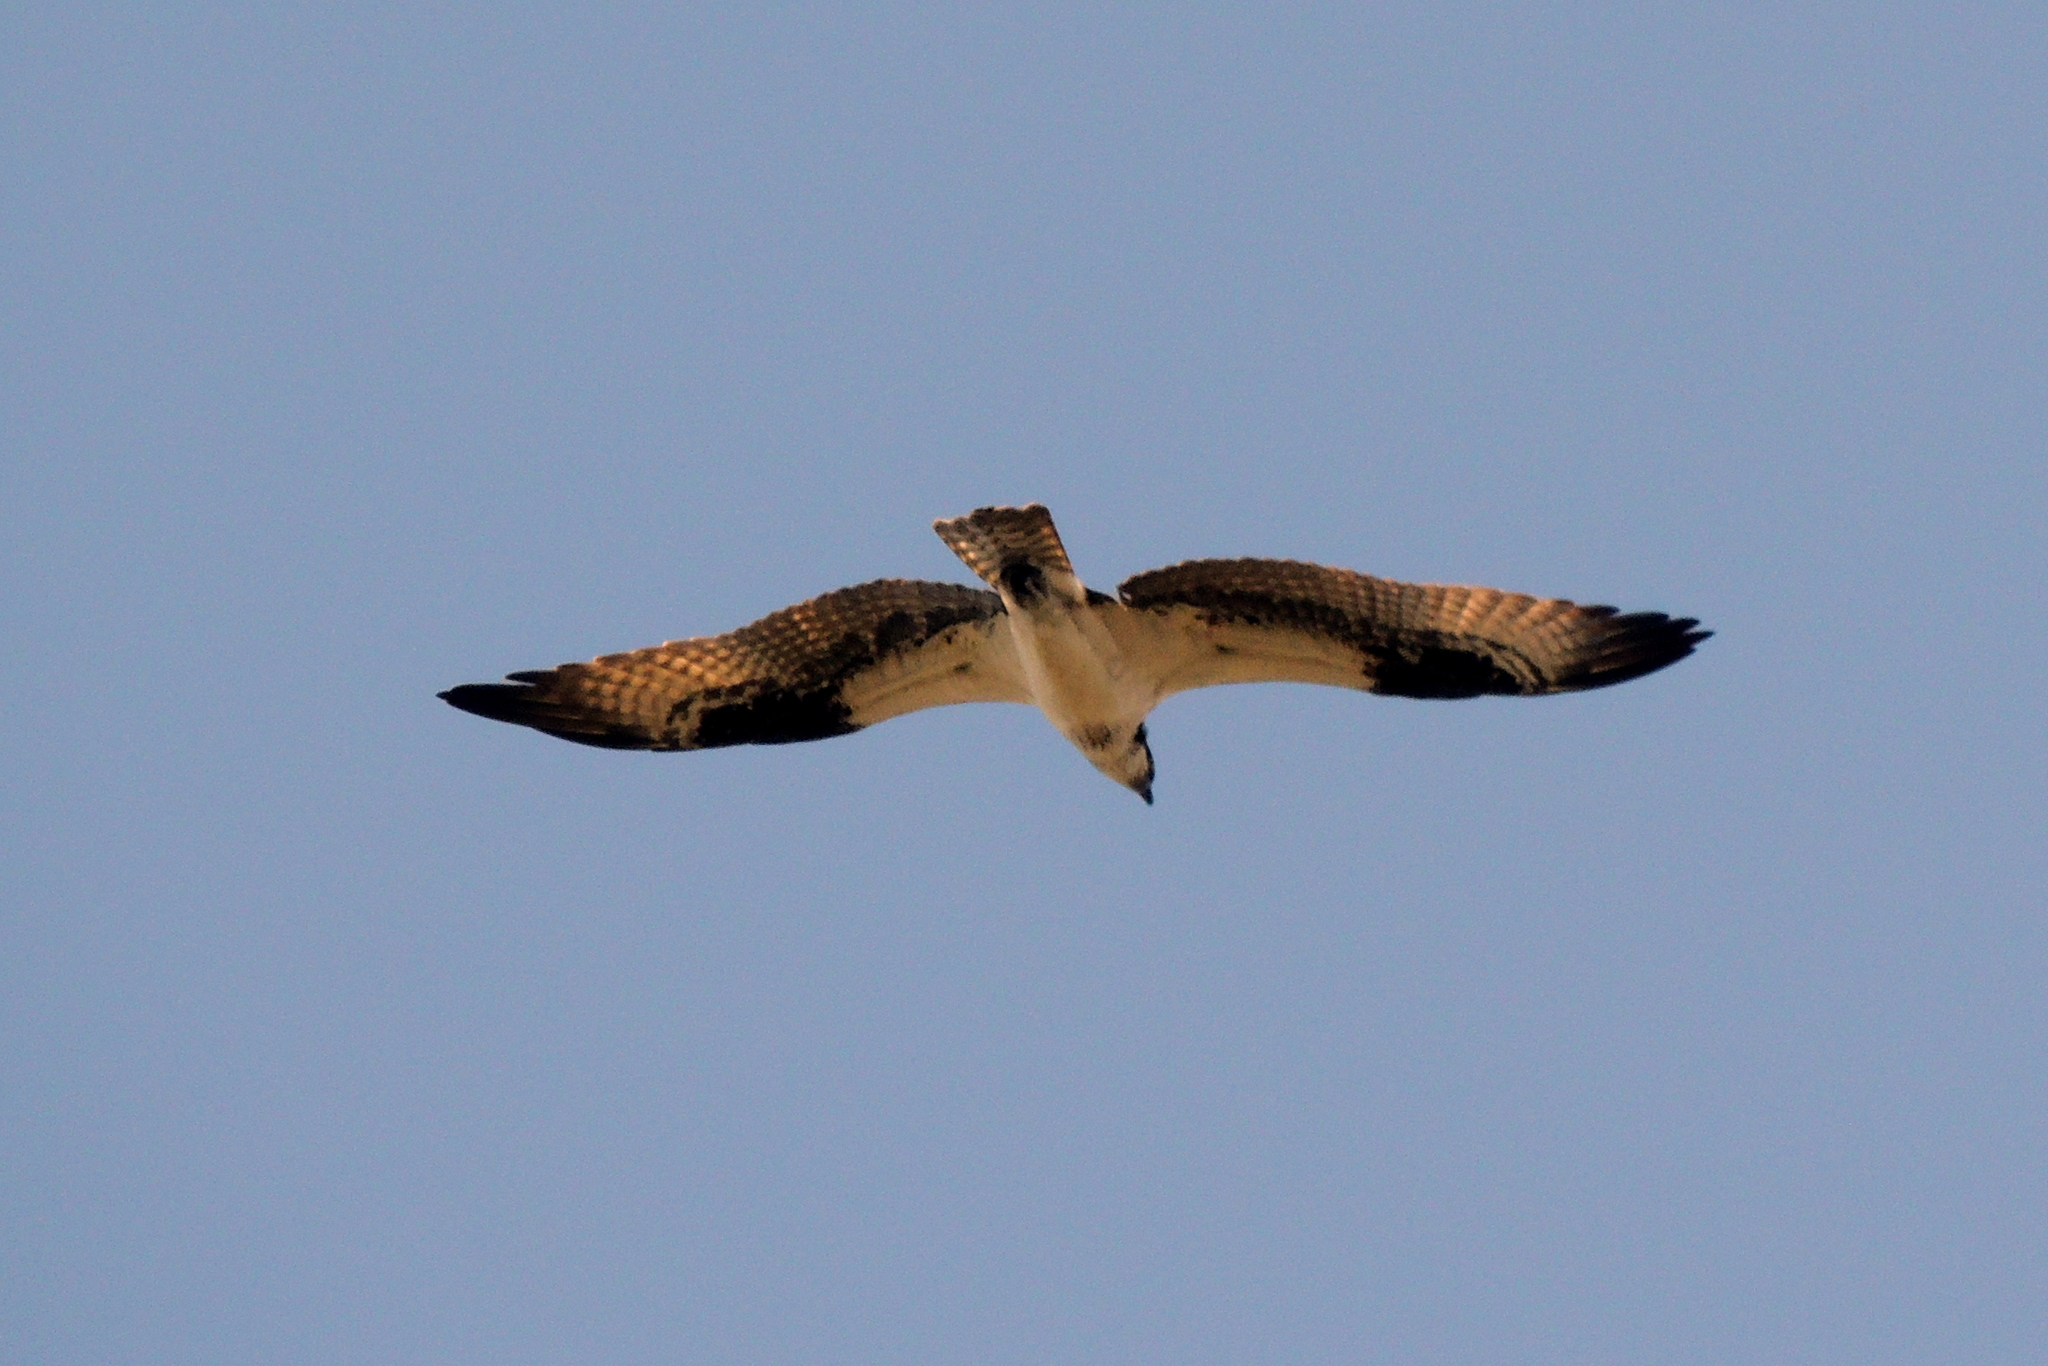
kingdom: Animalia
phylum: Chordata
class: Aves
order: Accipitriformes
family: Pandionidae
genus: Pandion
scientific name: Pandion haliaetus
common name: Osprey
